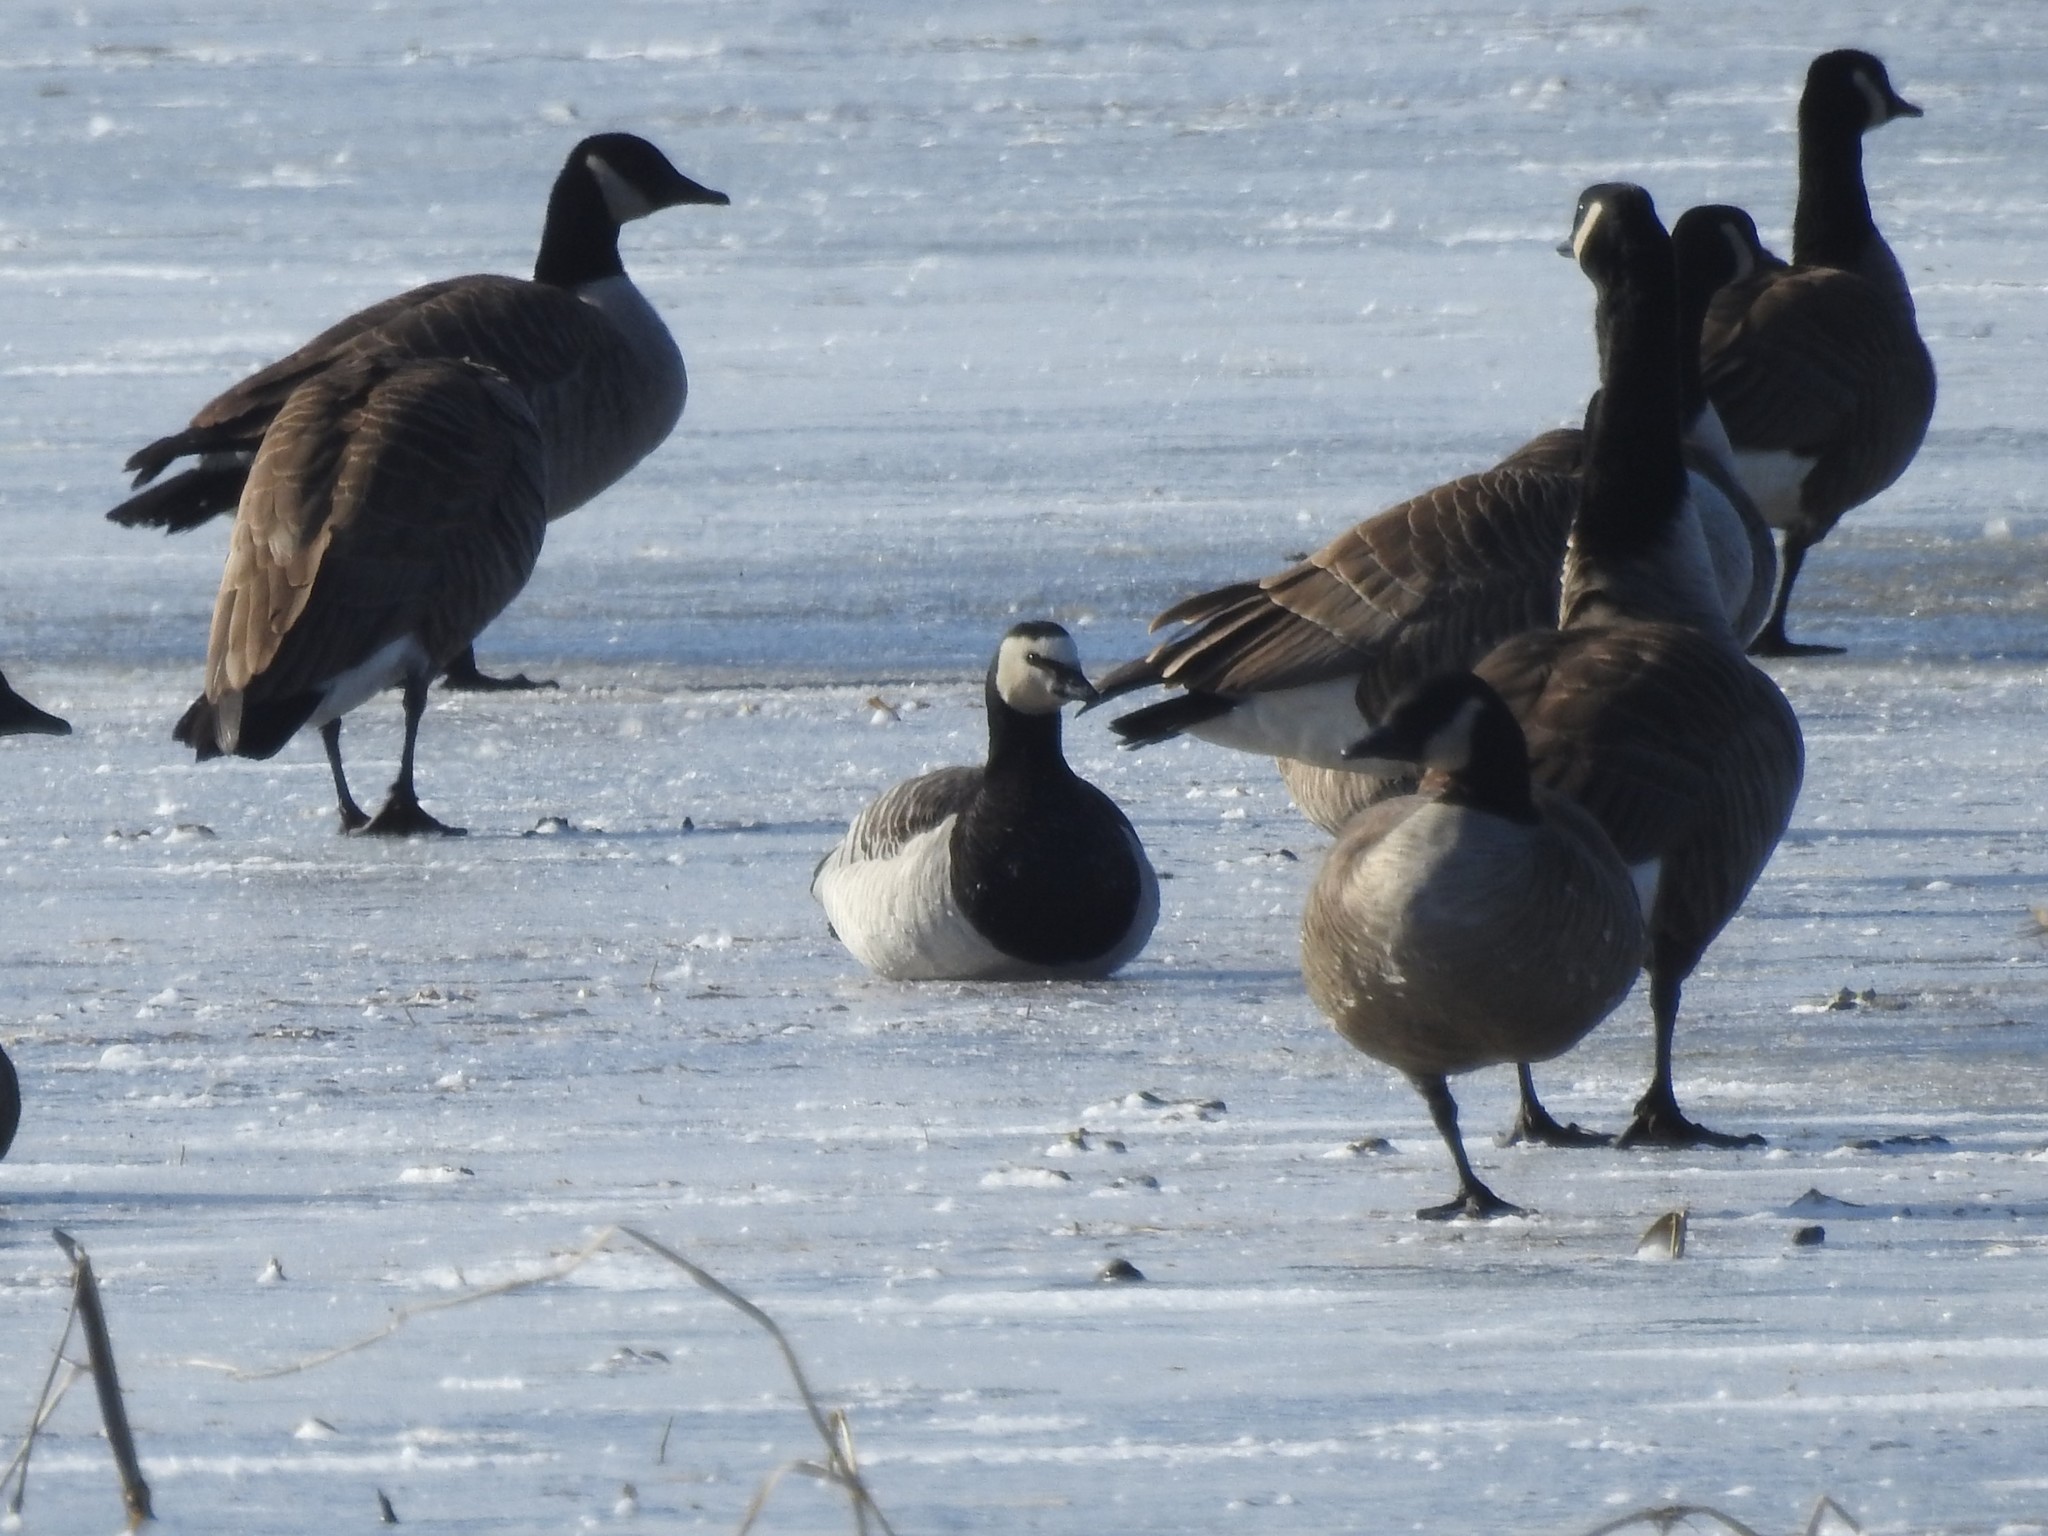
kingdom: Animalia
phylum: Chordata
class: Aves
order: Anseriformes
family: Anatidae
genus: Branta
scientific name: Branta leucopsis
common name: Barnacle goose
